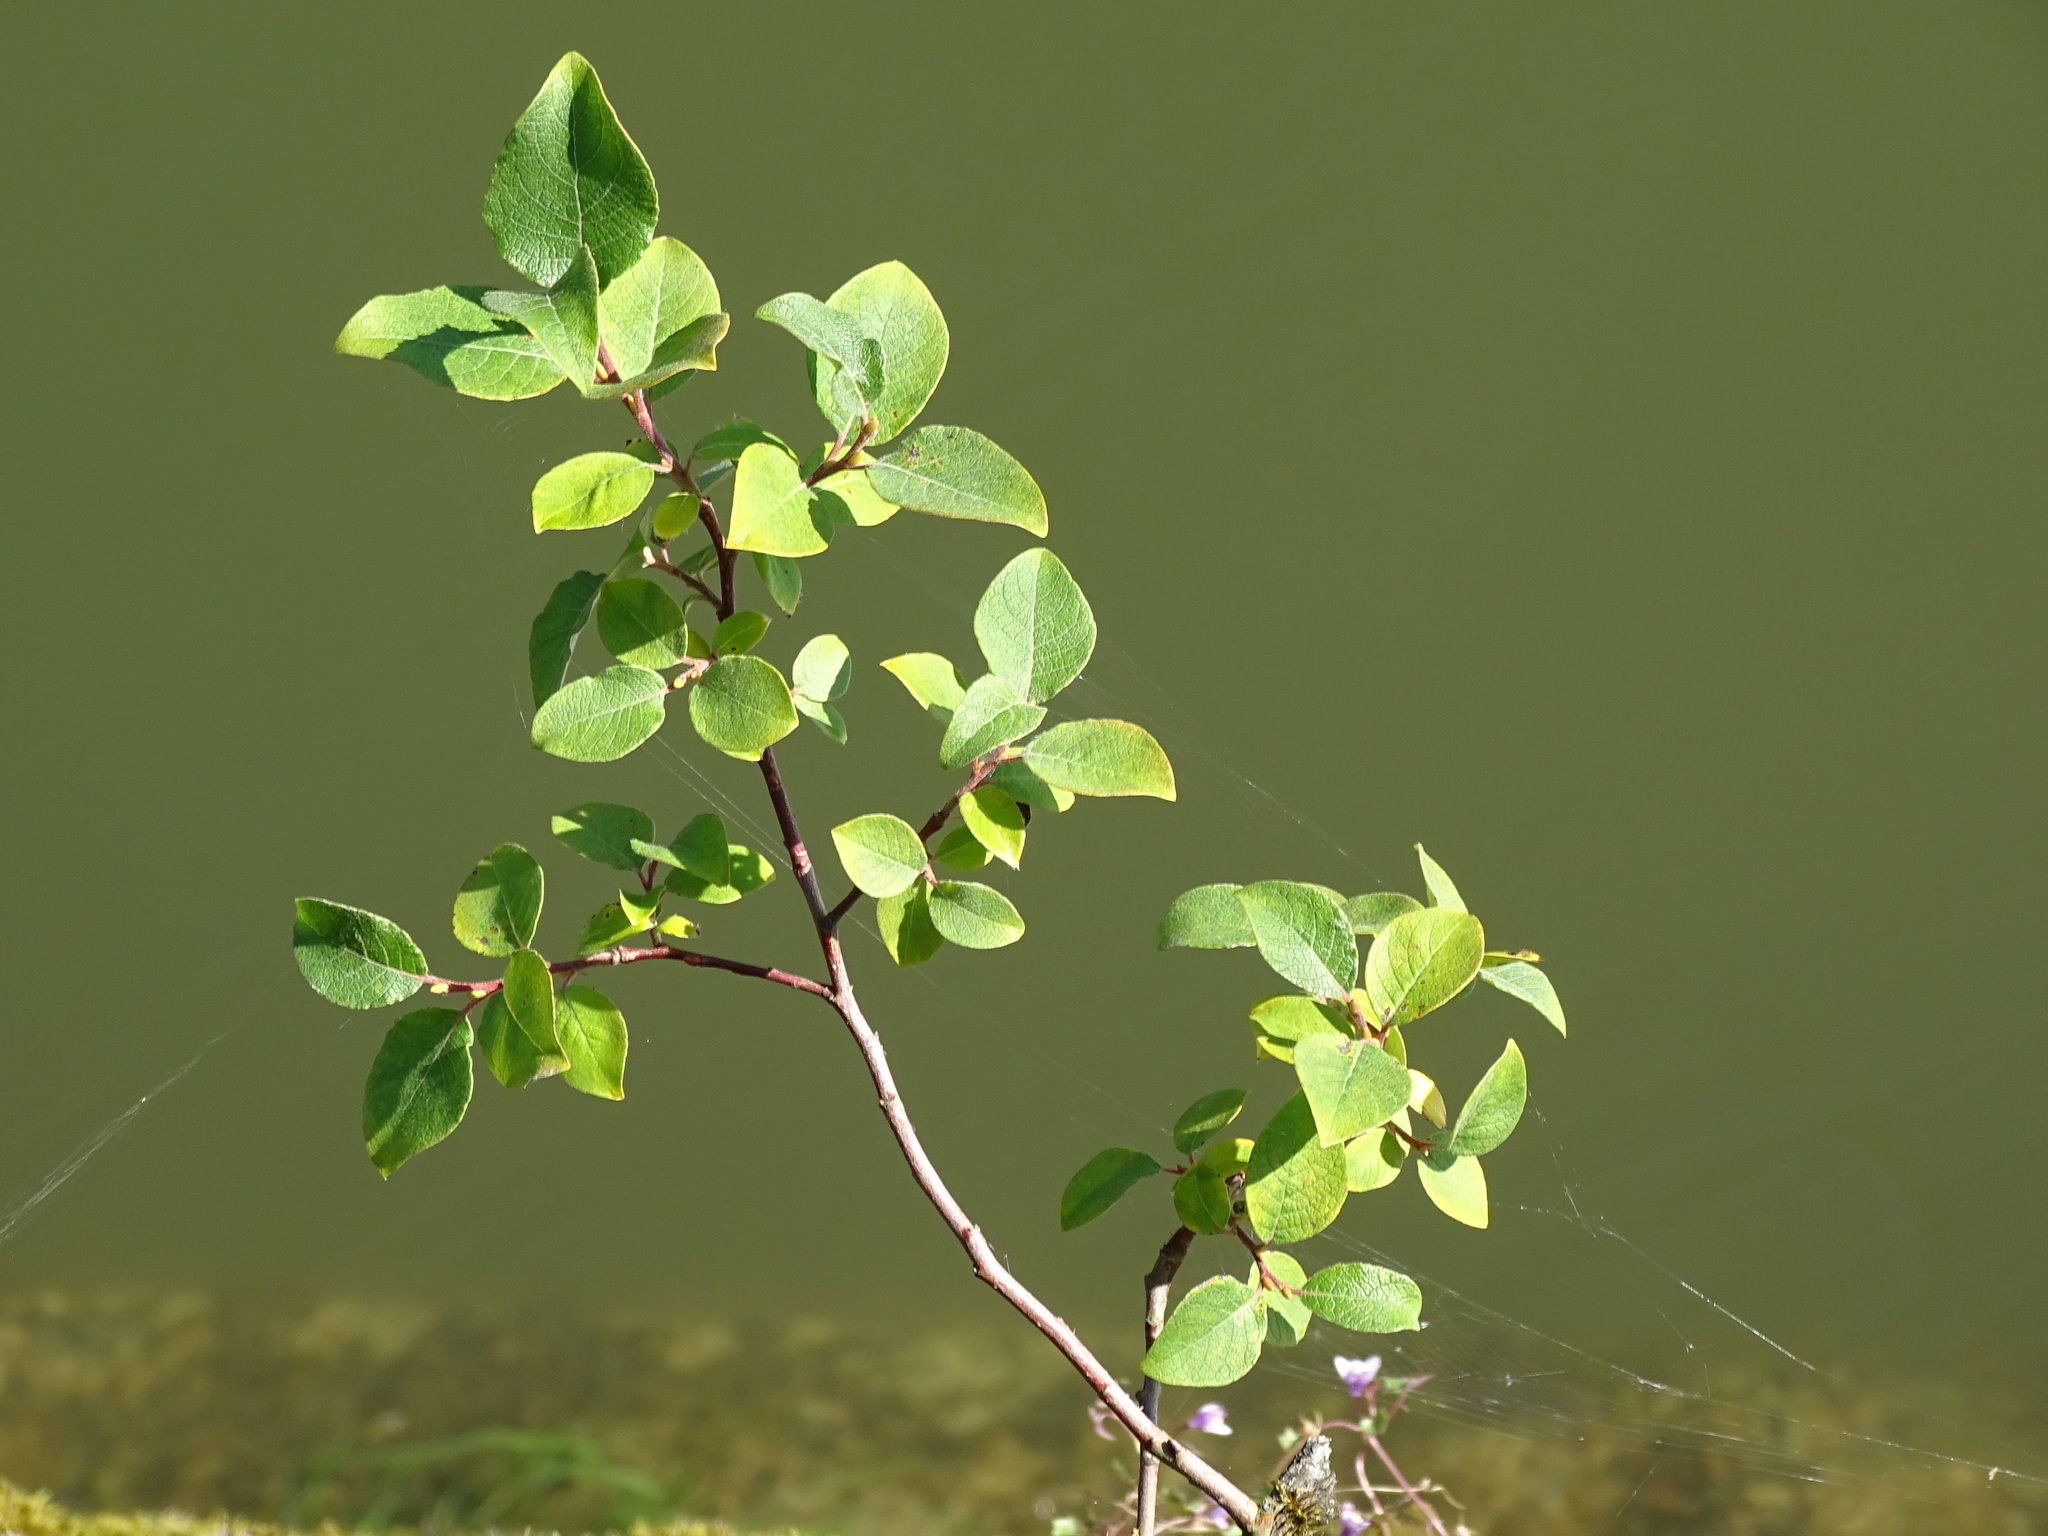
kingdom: Plantae
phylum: Tracheophyta
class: Magnoliopsida
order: Malpighiales
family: Salicaceae
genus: Salix
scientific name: Salix caprea
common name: Goat willow
